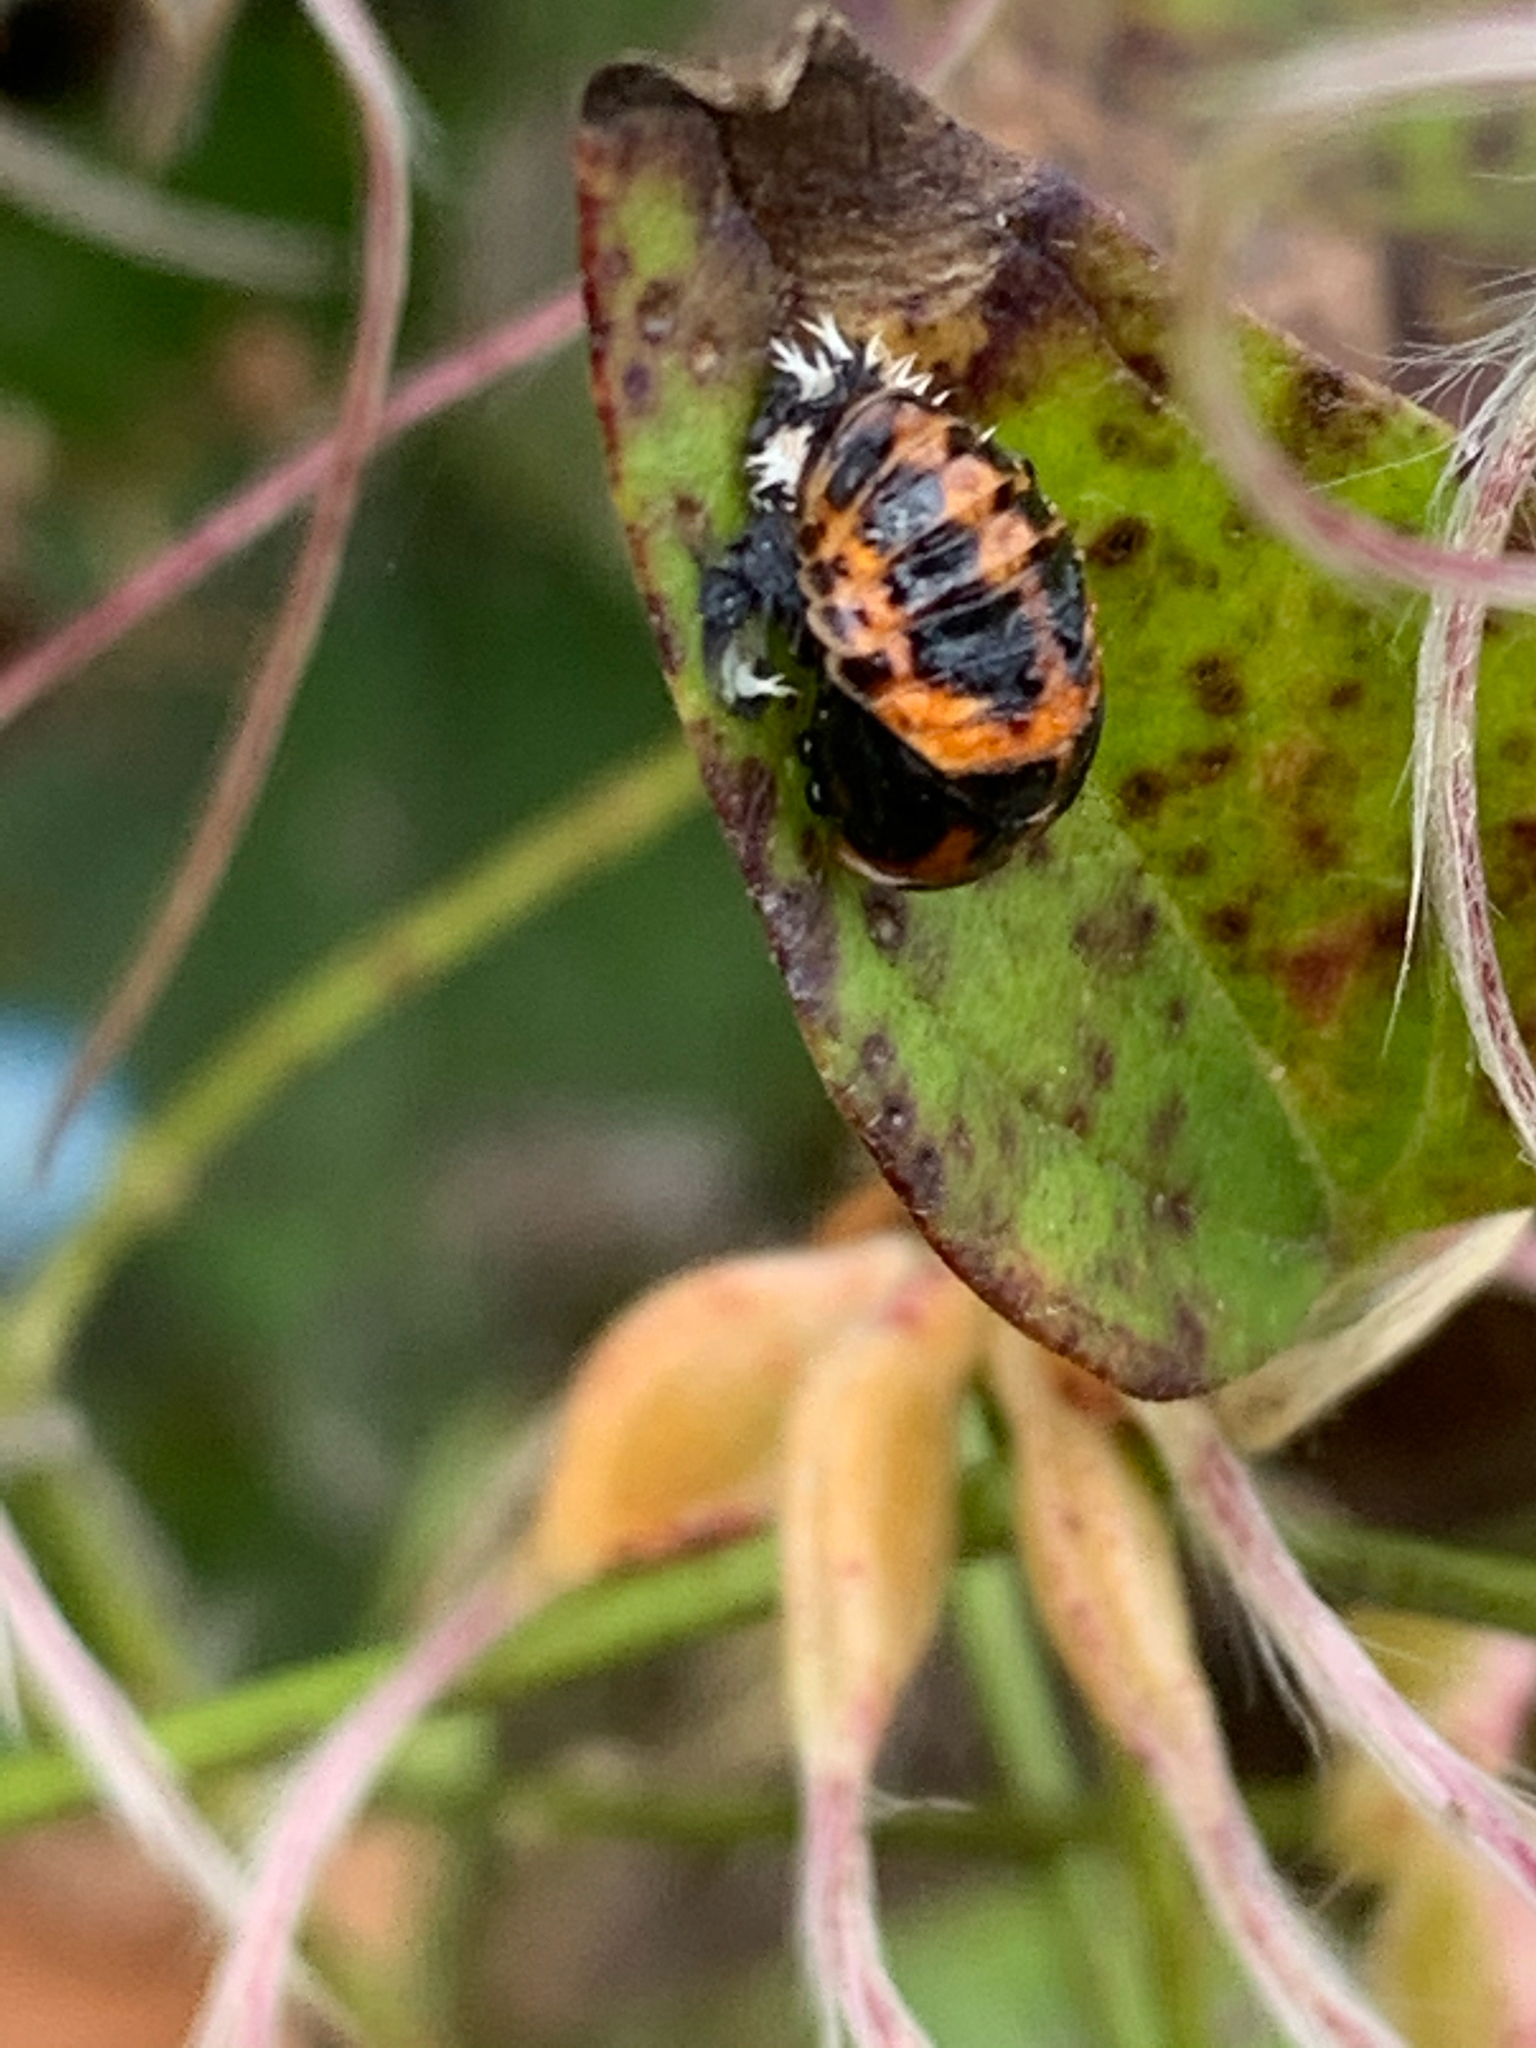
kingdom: Animalia
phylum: Arthropoda
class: Insecta
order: Coleoptera
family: Coccinellidae
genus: Harmonia
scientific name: Harmonia axyridis
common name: Harlequin ladybird
